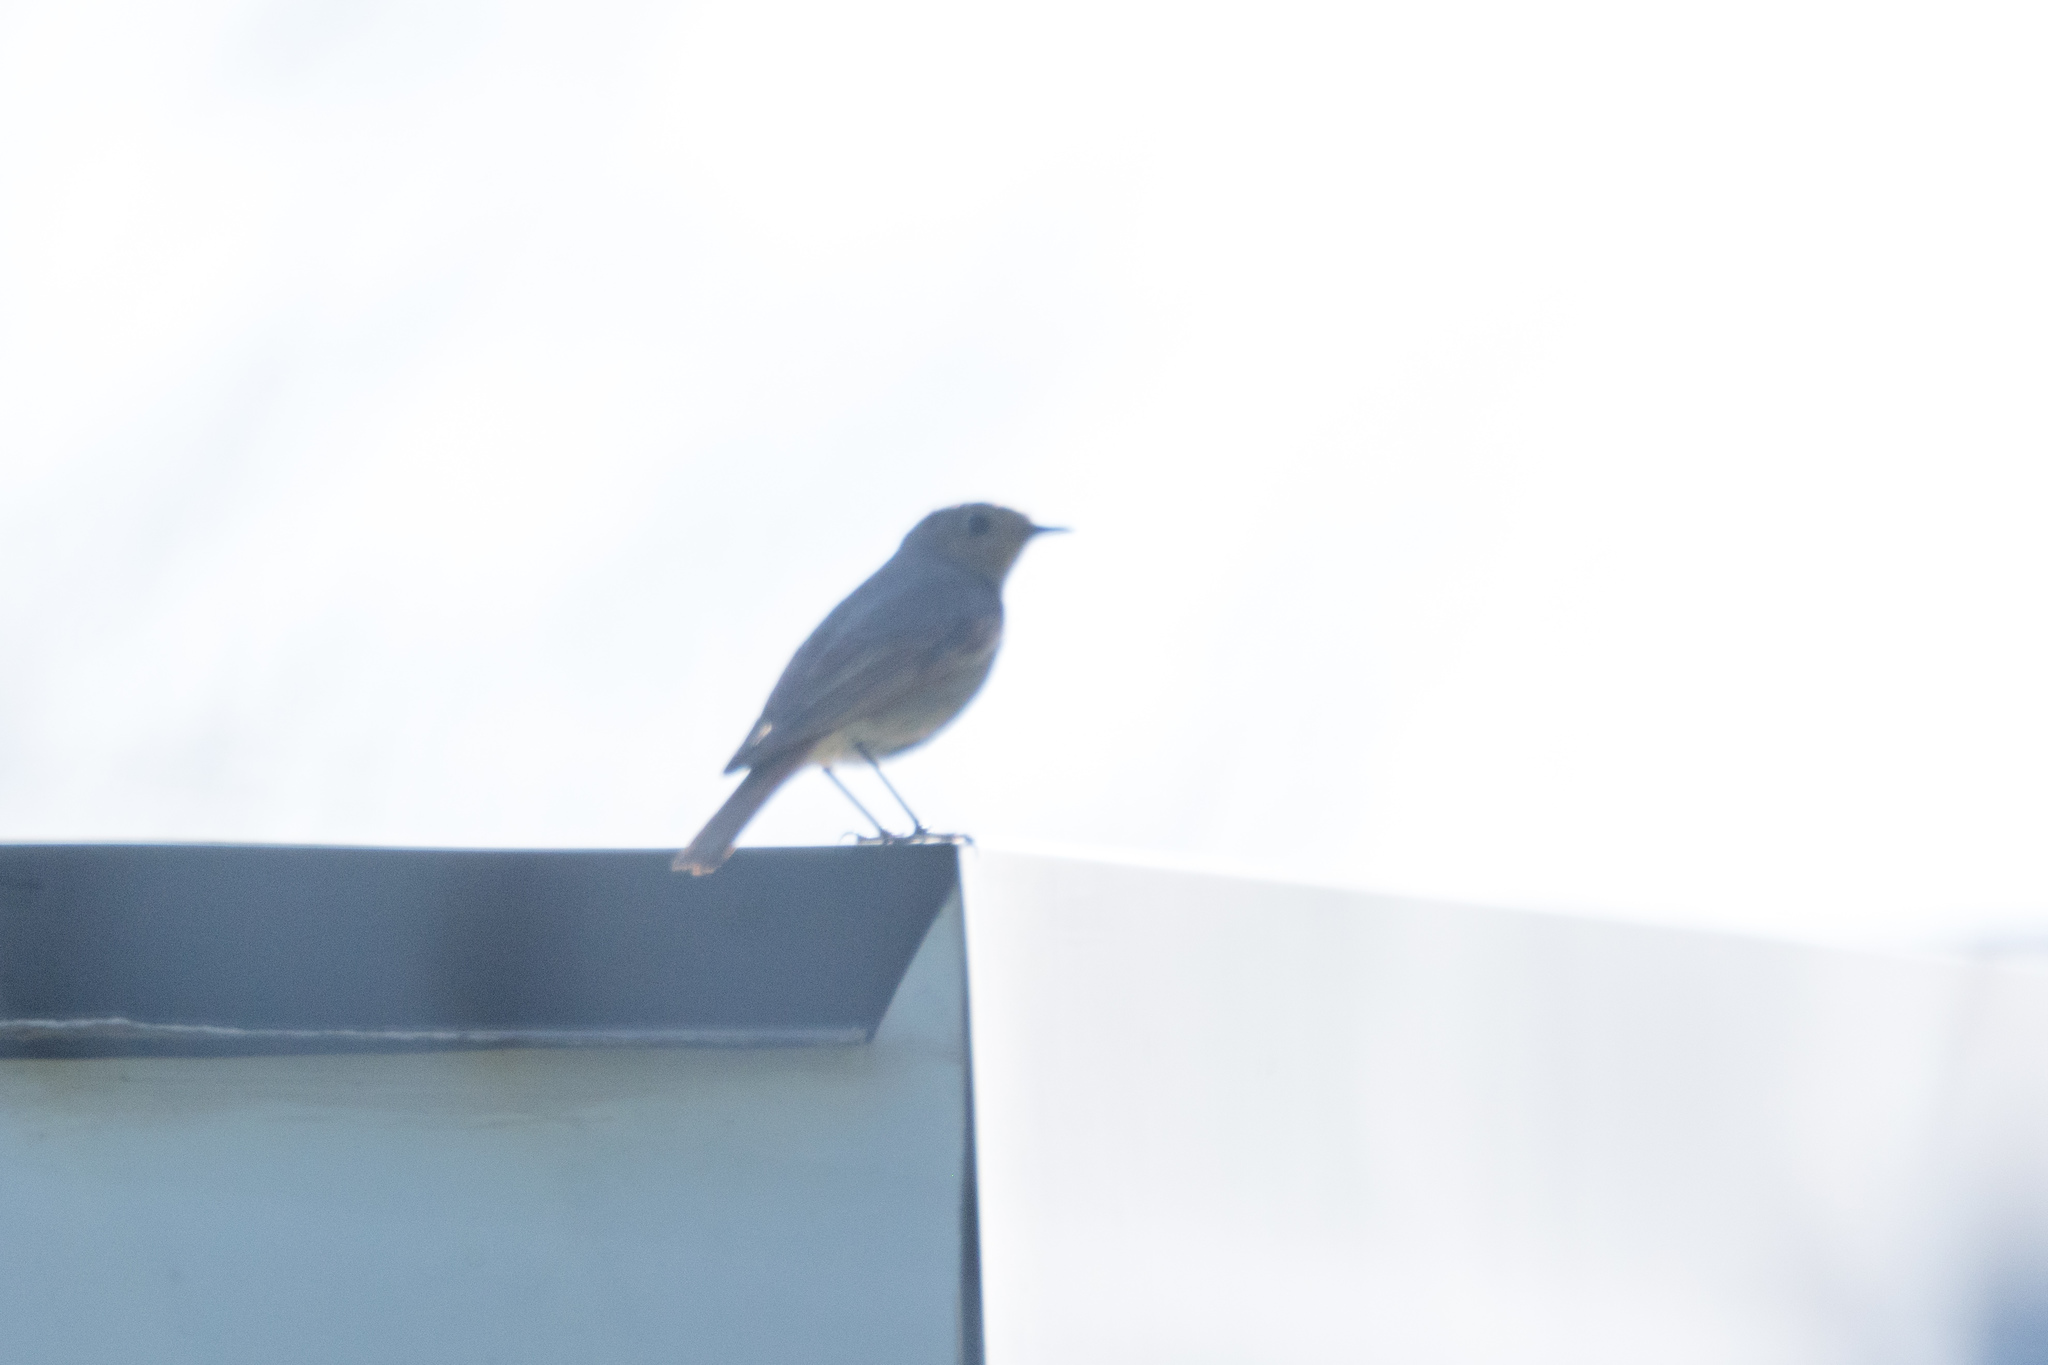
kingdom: Animalia
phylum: Chordata
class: Aves
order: Passeriformes
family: Muscicapidae
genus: Phoenicurus
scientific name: Phoenicurus ochruros
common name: Black redstart
